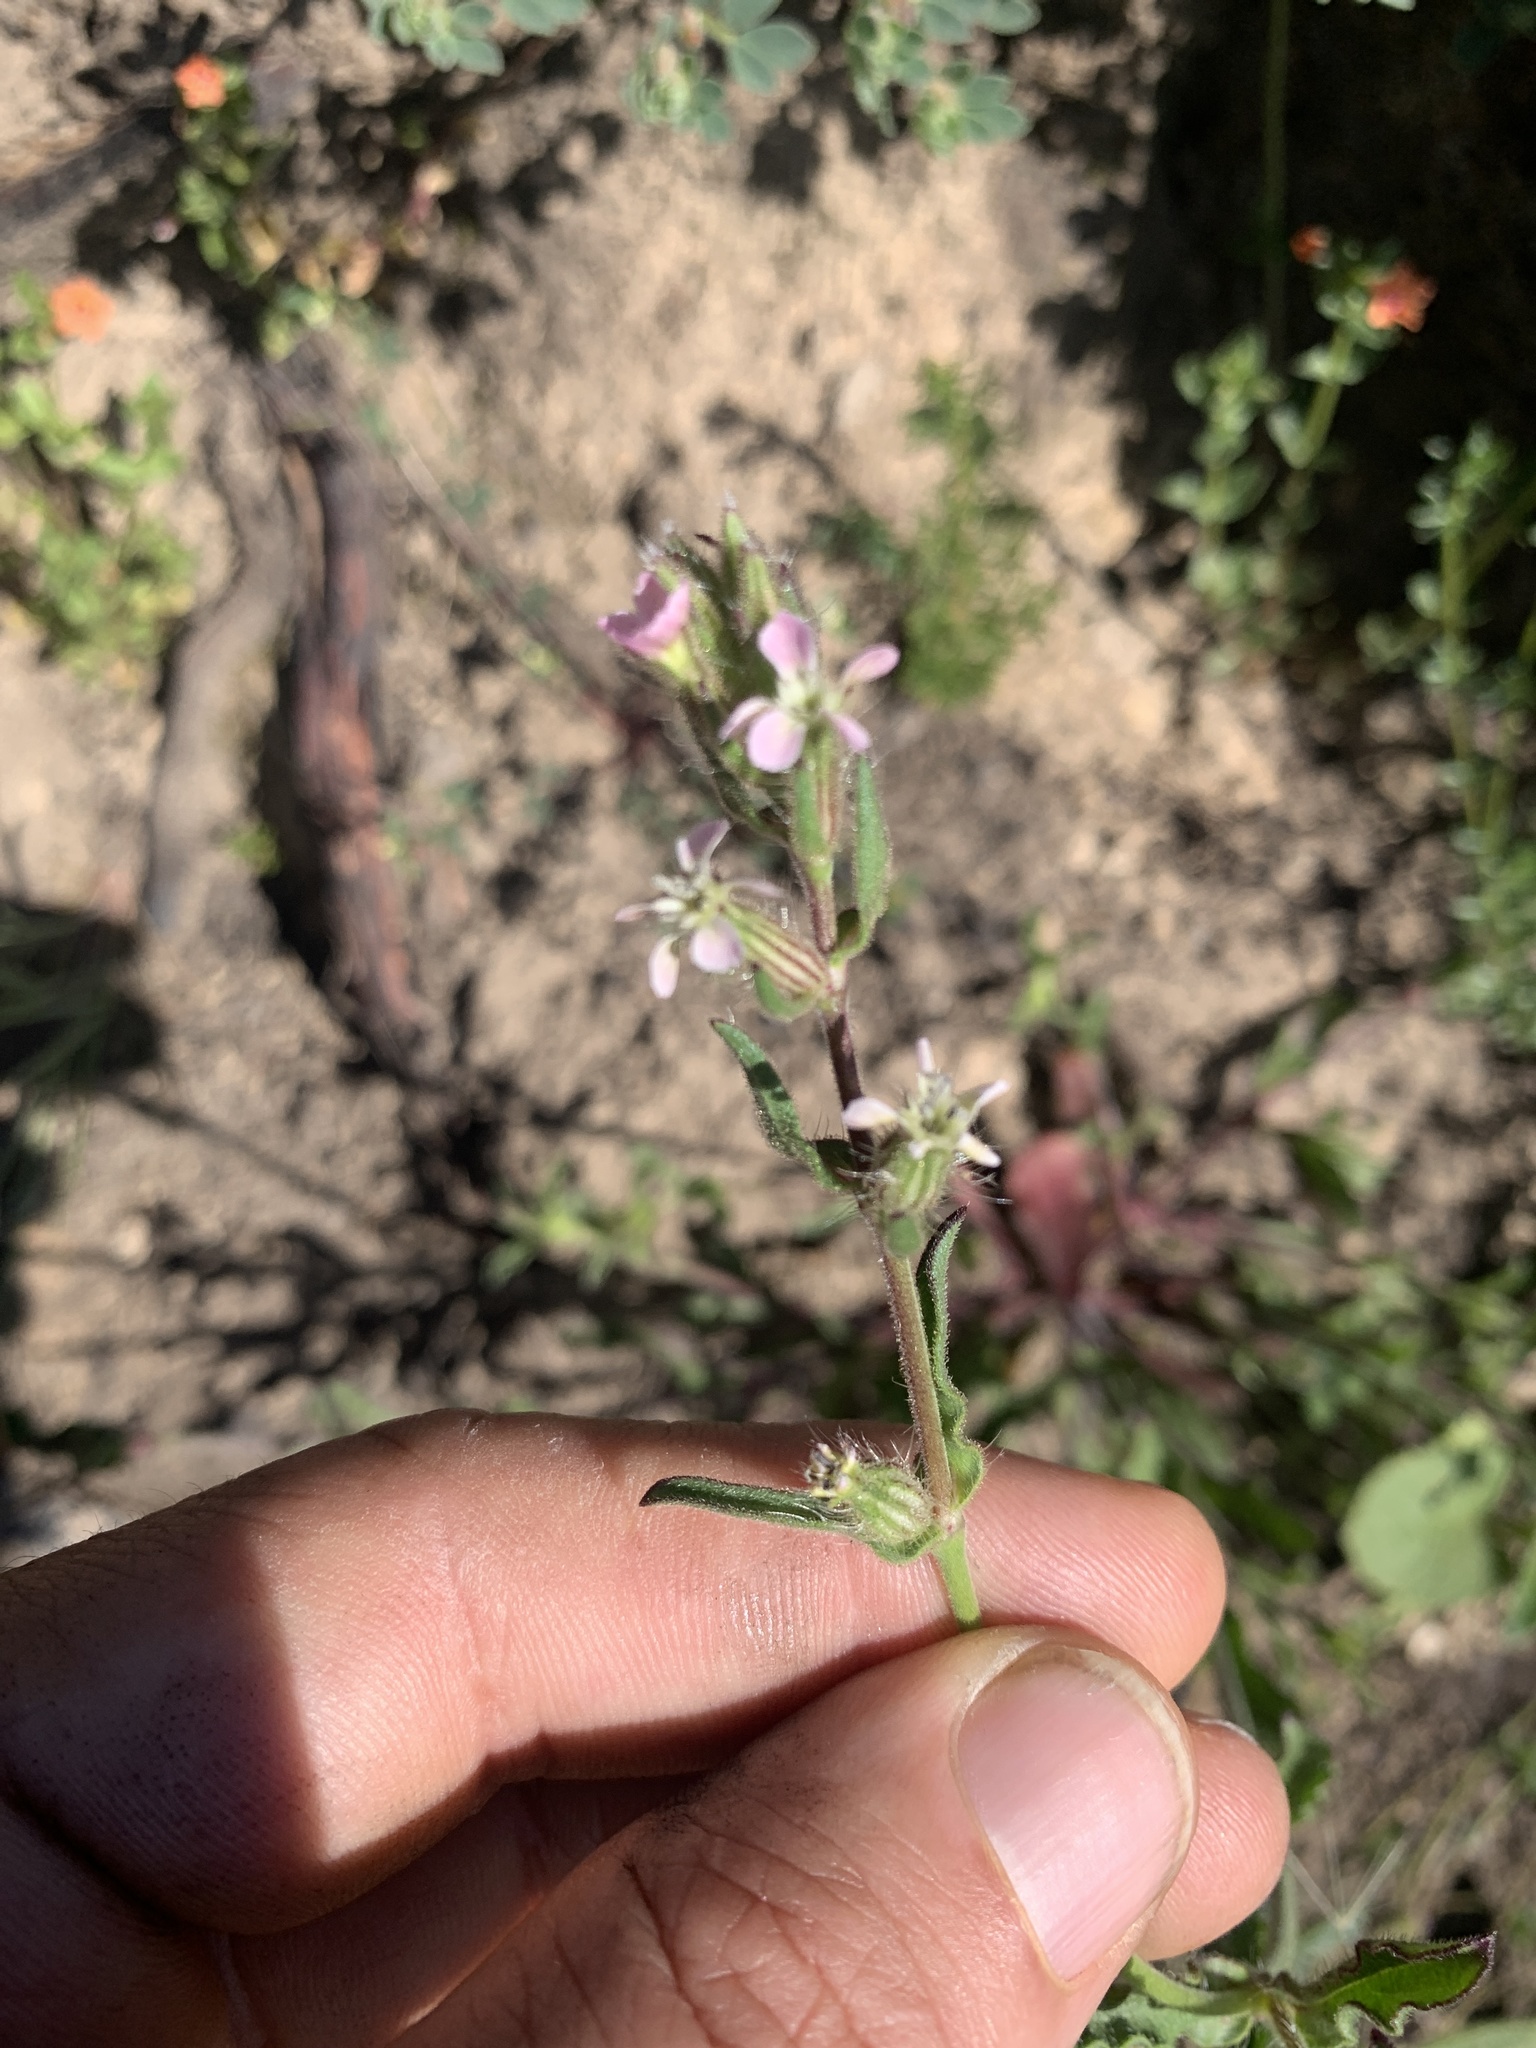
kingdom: Plantae
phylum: Tracheophyta
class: Magnoliopsida
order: Caryophyllales
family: Caryophyllaceae
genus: Silene
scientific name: Silene gallica
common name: Small-flowered catchfly
